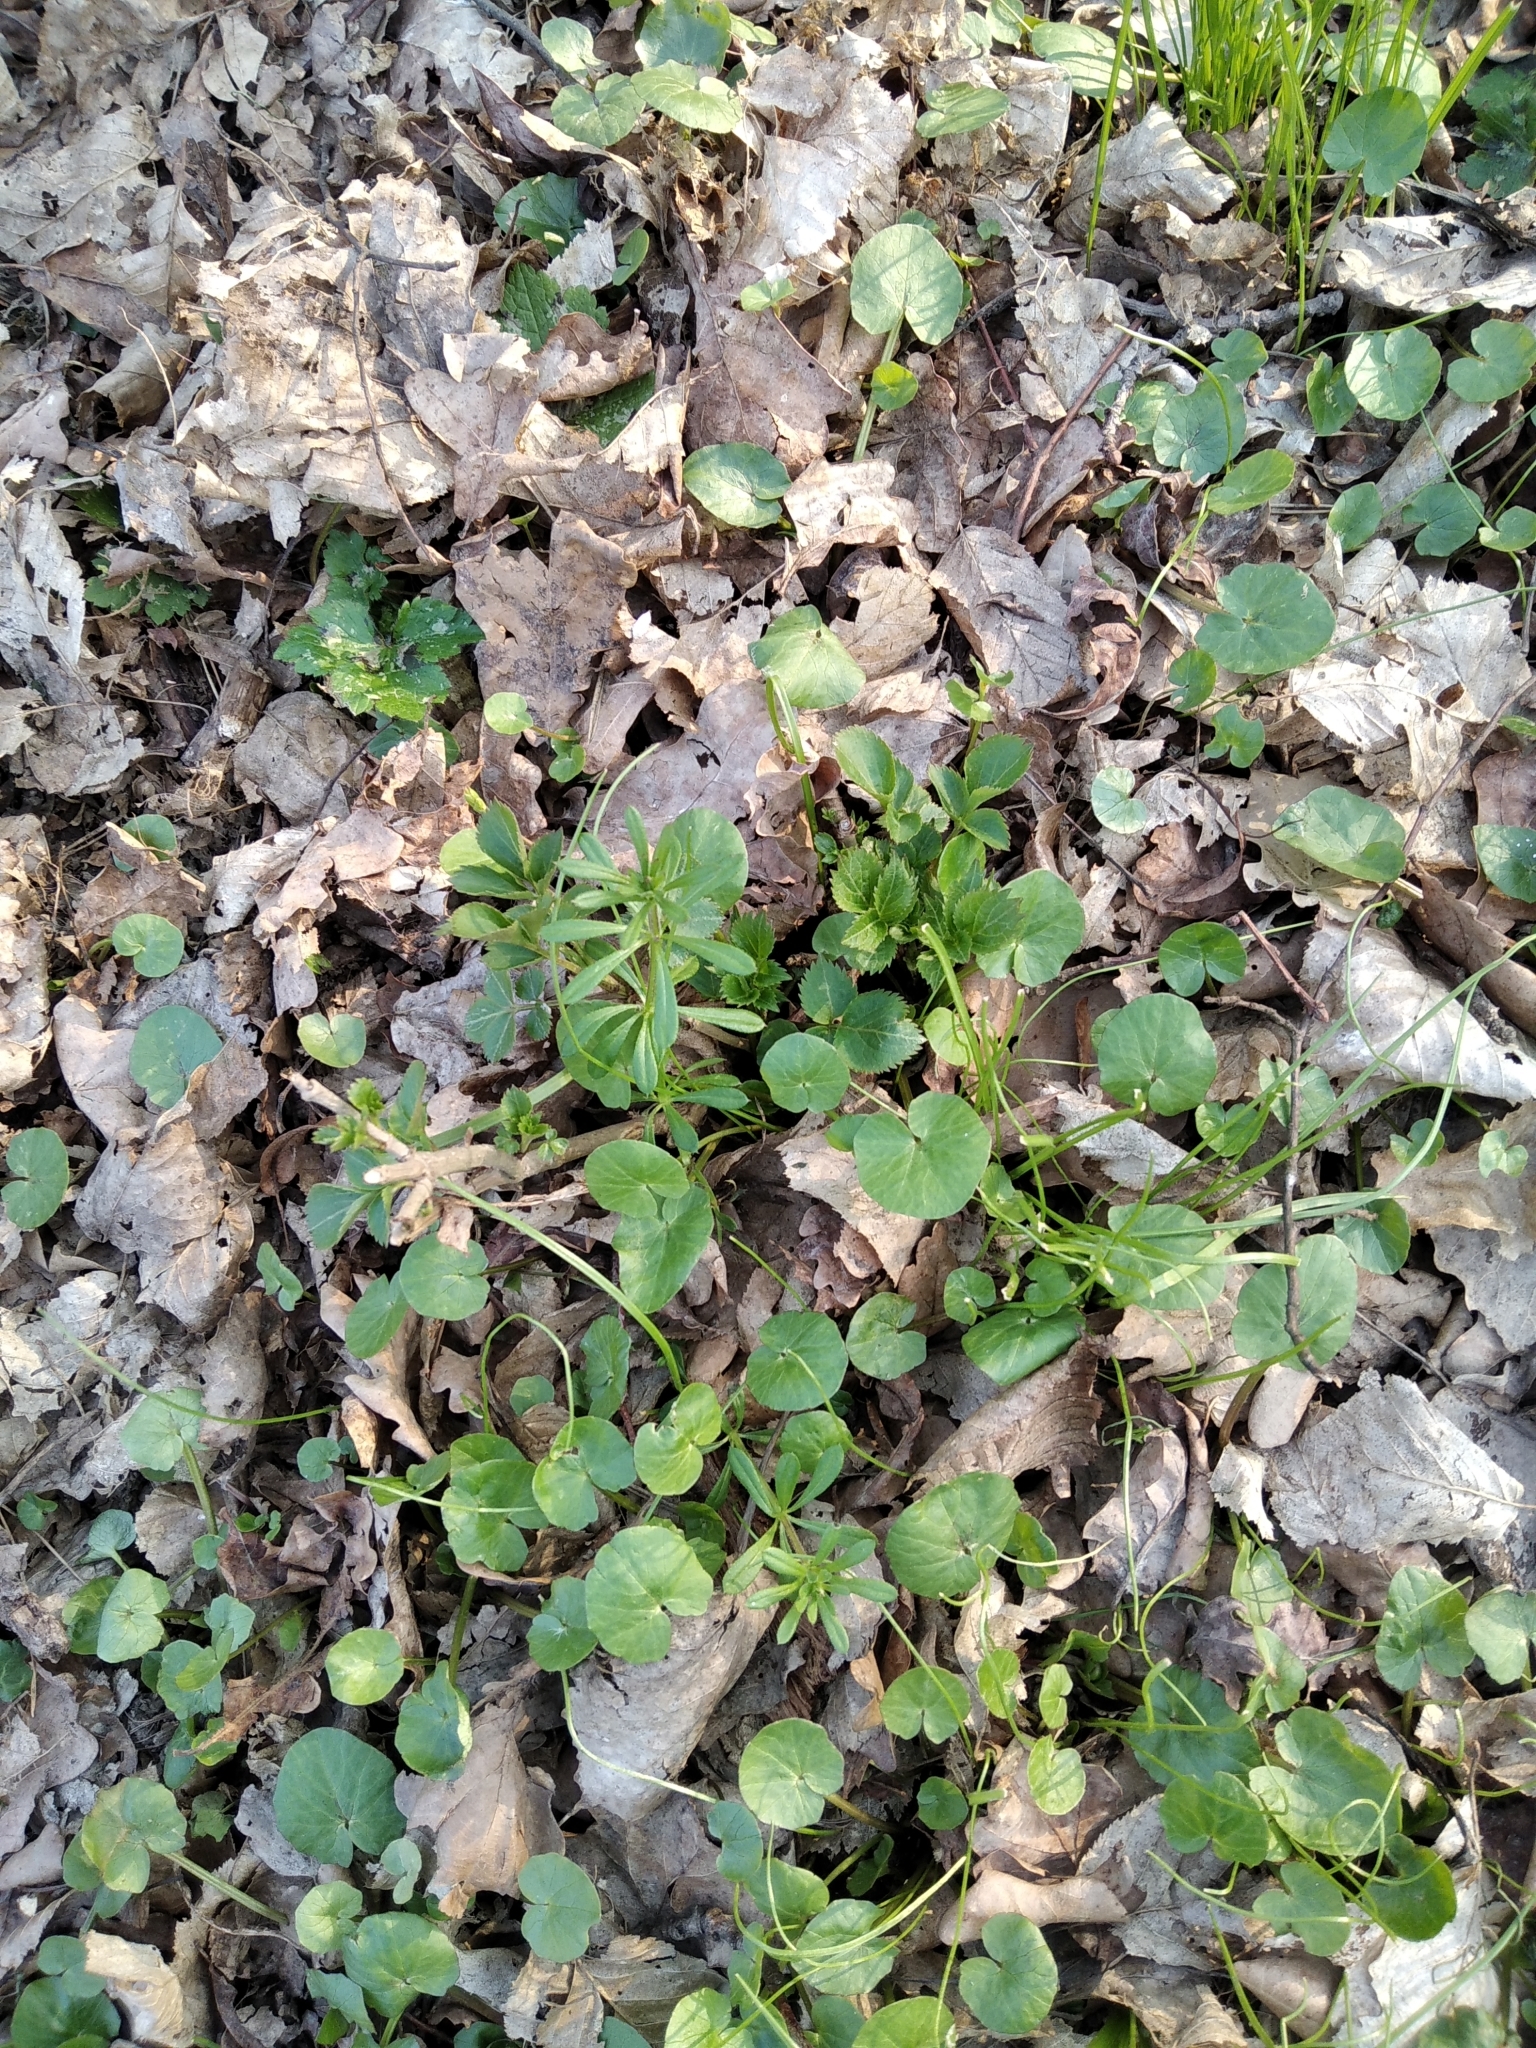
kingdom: Plantae
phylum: Tracheophyta
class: Magnoliopsida
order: Gentianales
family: Rubiaceae
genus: Galium
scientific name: Galium aparine
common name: Cleavers
